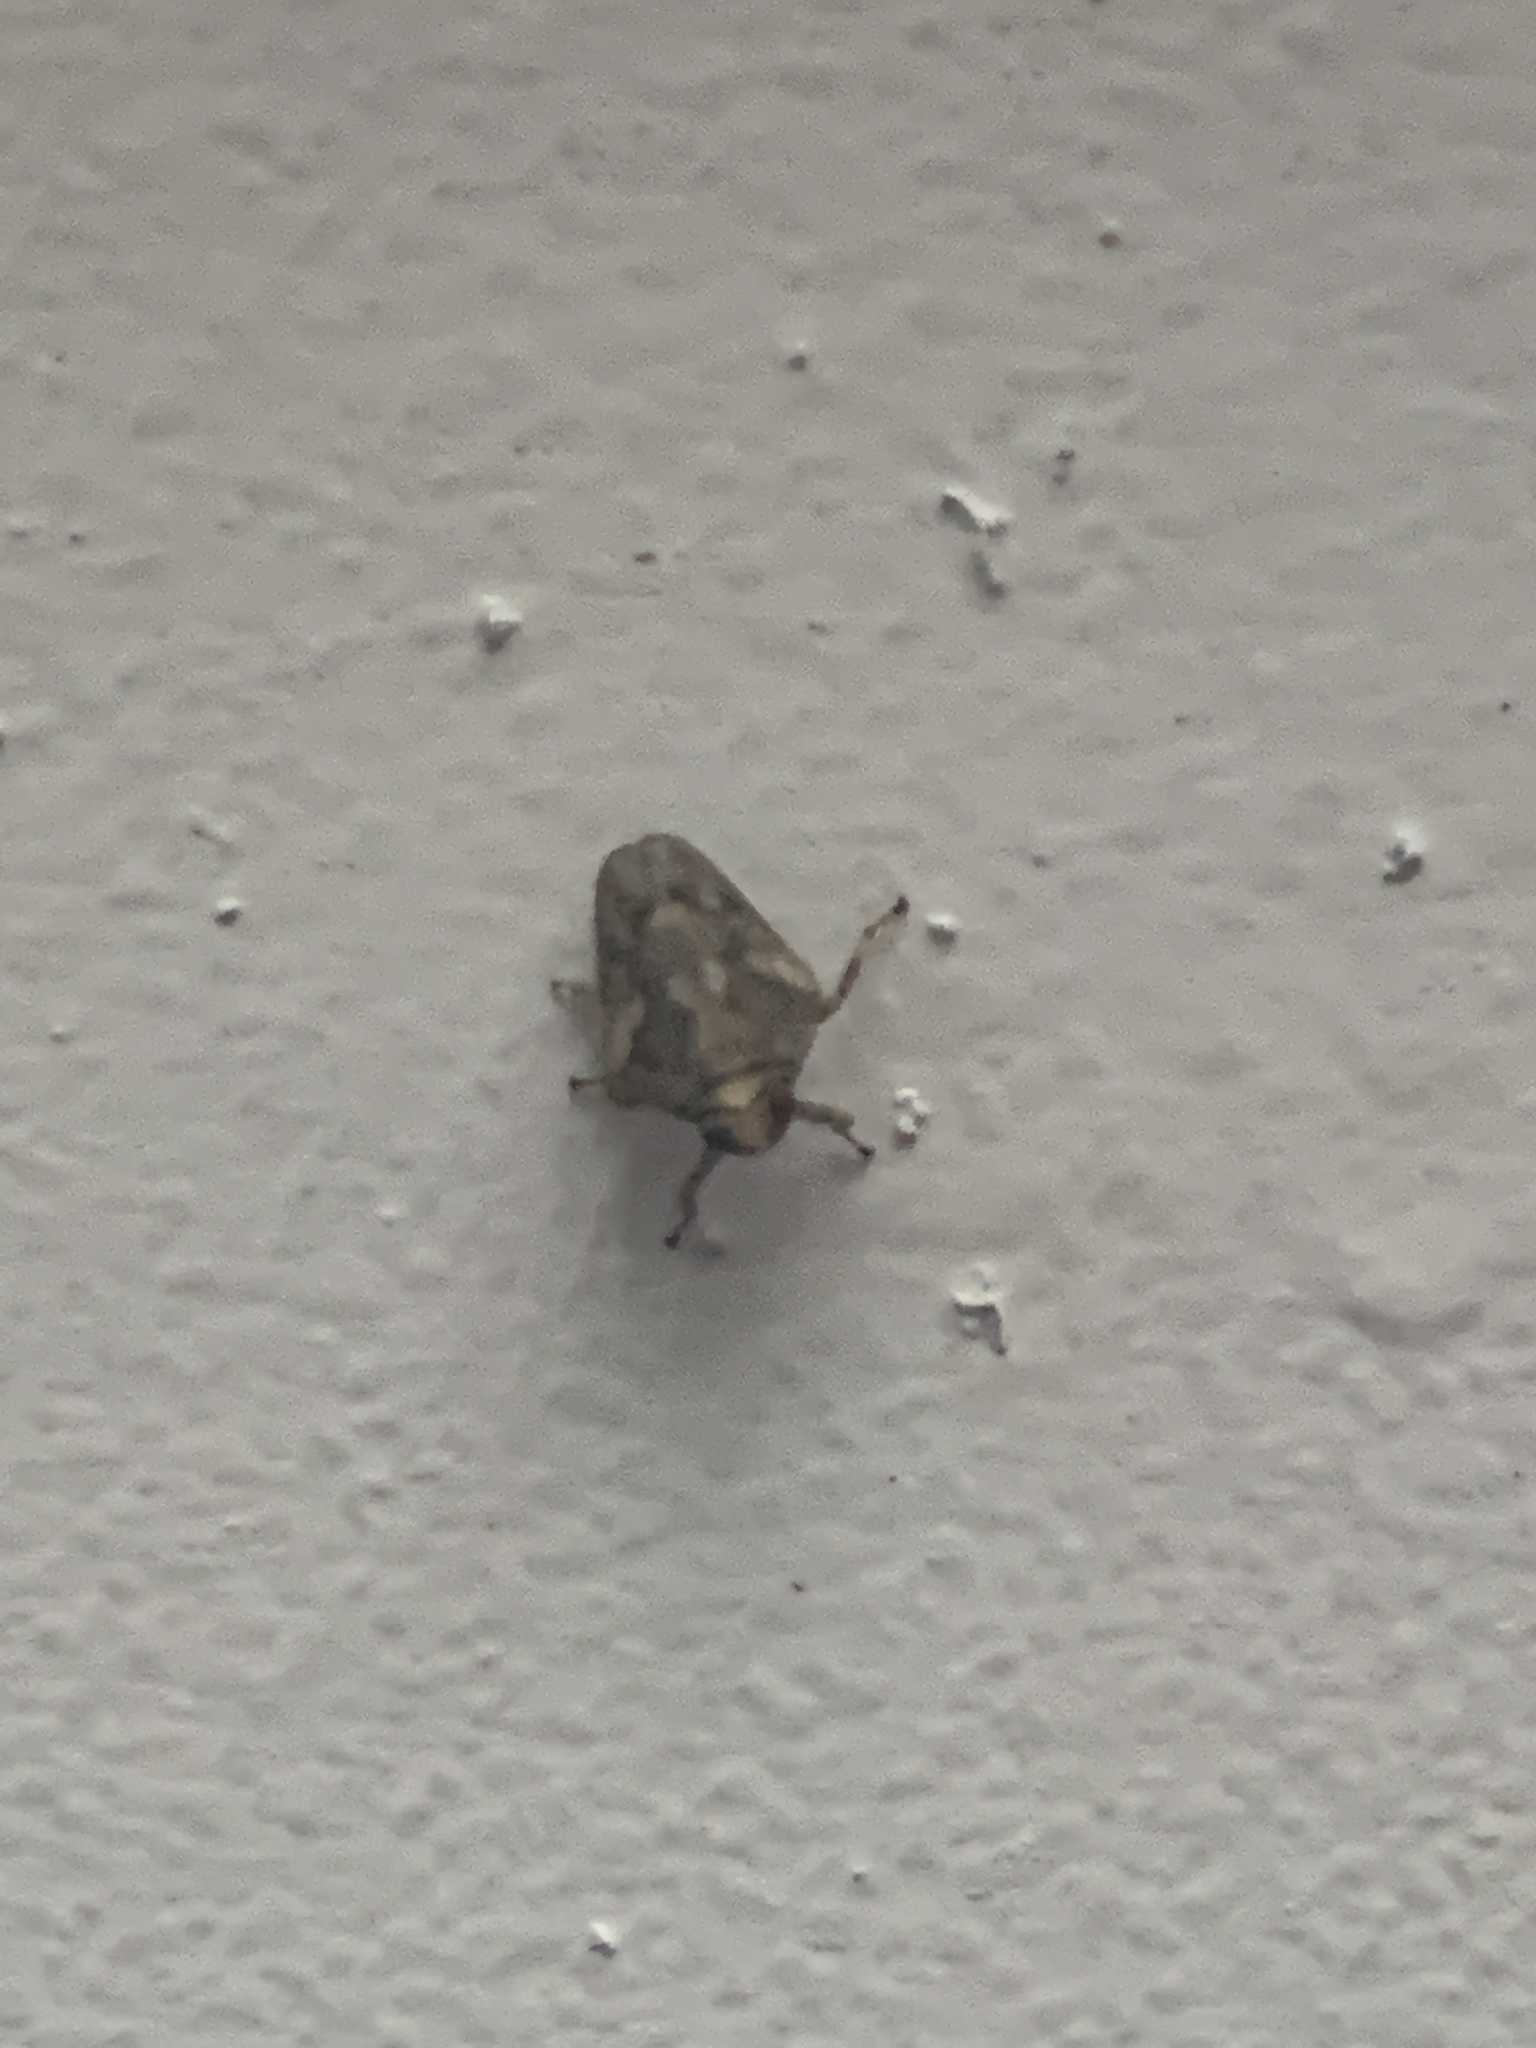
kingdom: Animalia
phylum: Arthropoda
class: Insecta
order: Hemiptera
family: Issidae
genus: Issus
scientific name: Issus coleoptratus
